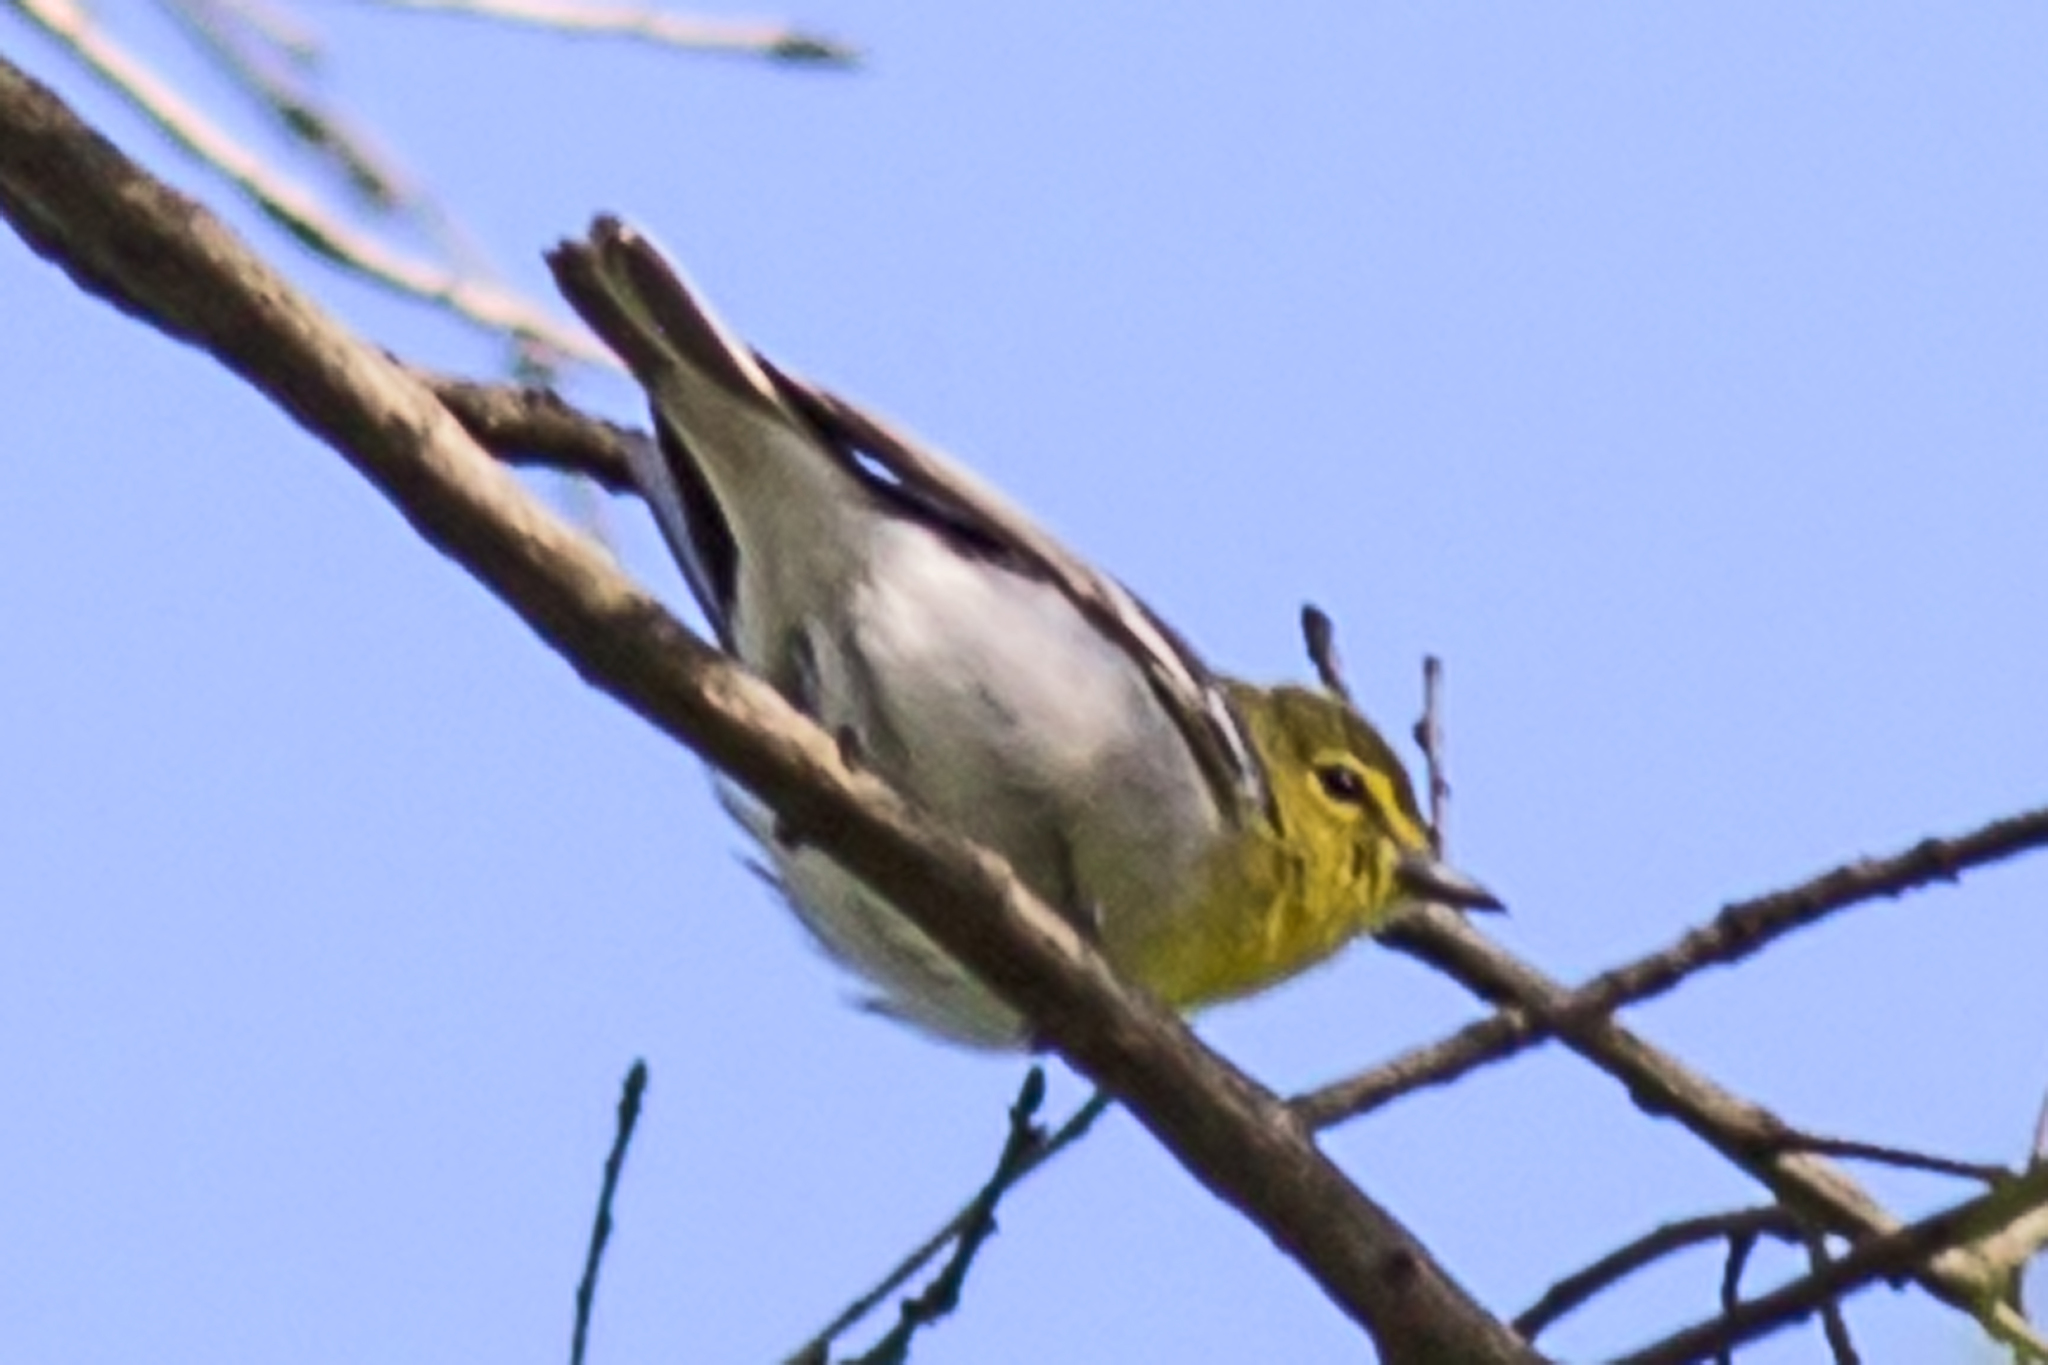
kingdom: Animalia
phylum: Chordata
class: Aves
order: Passeriformes
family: Vireonidae
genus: Vireo
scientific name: Vireo flavifrons
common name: Yellow-throated vireo
